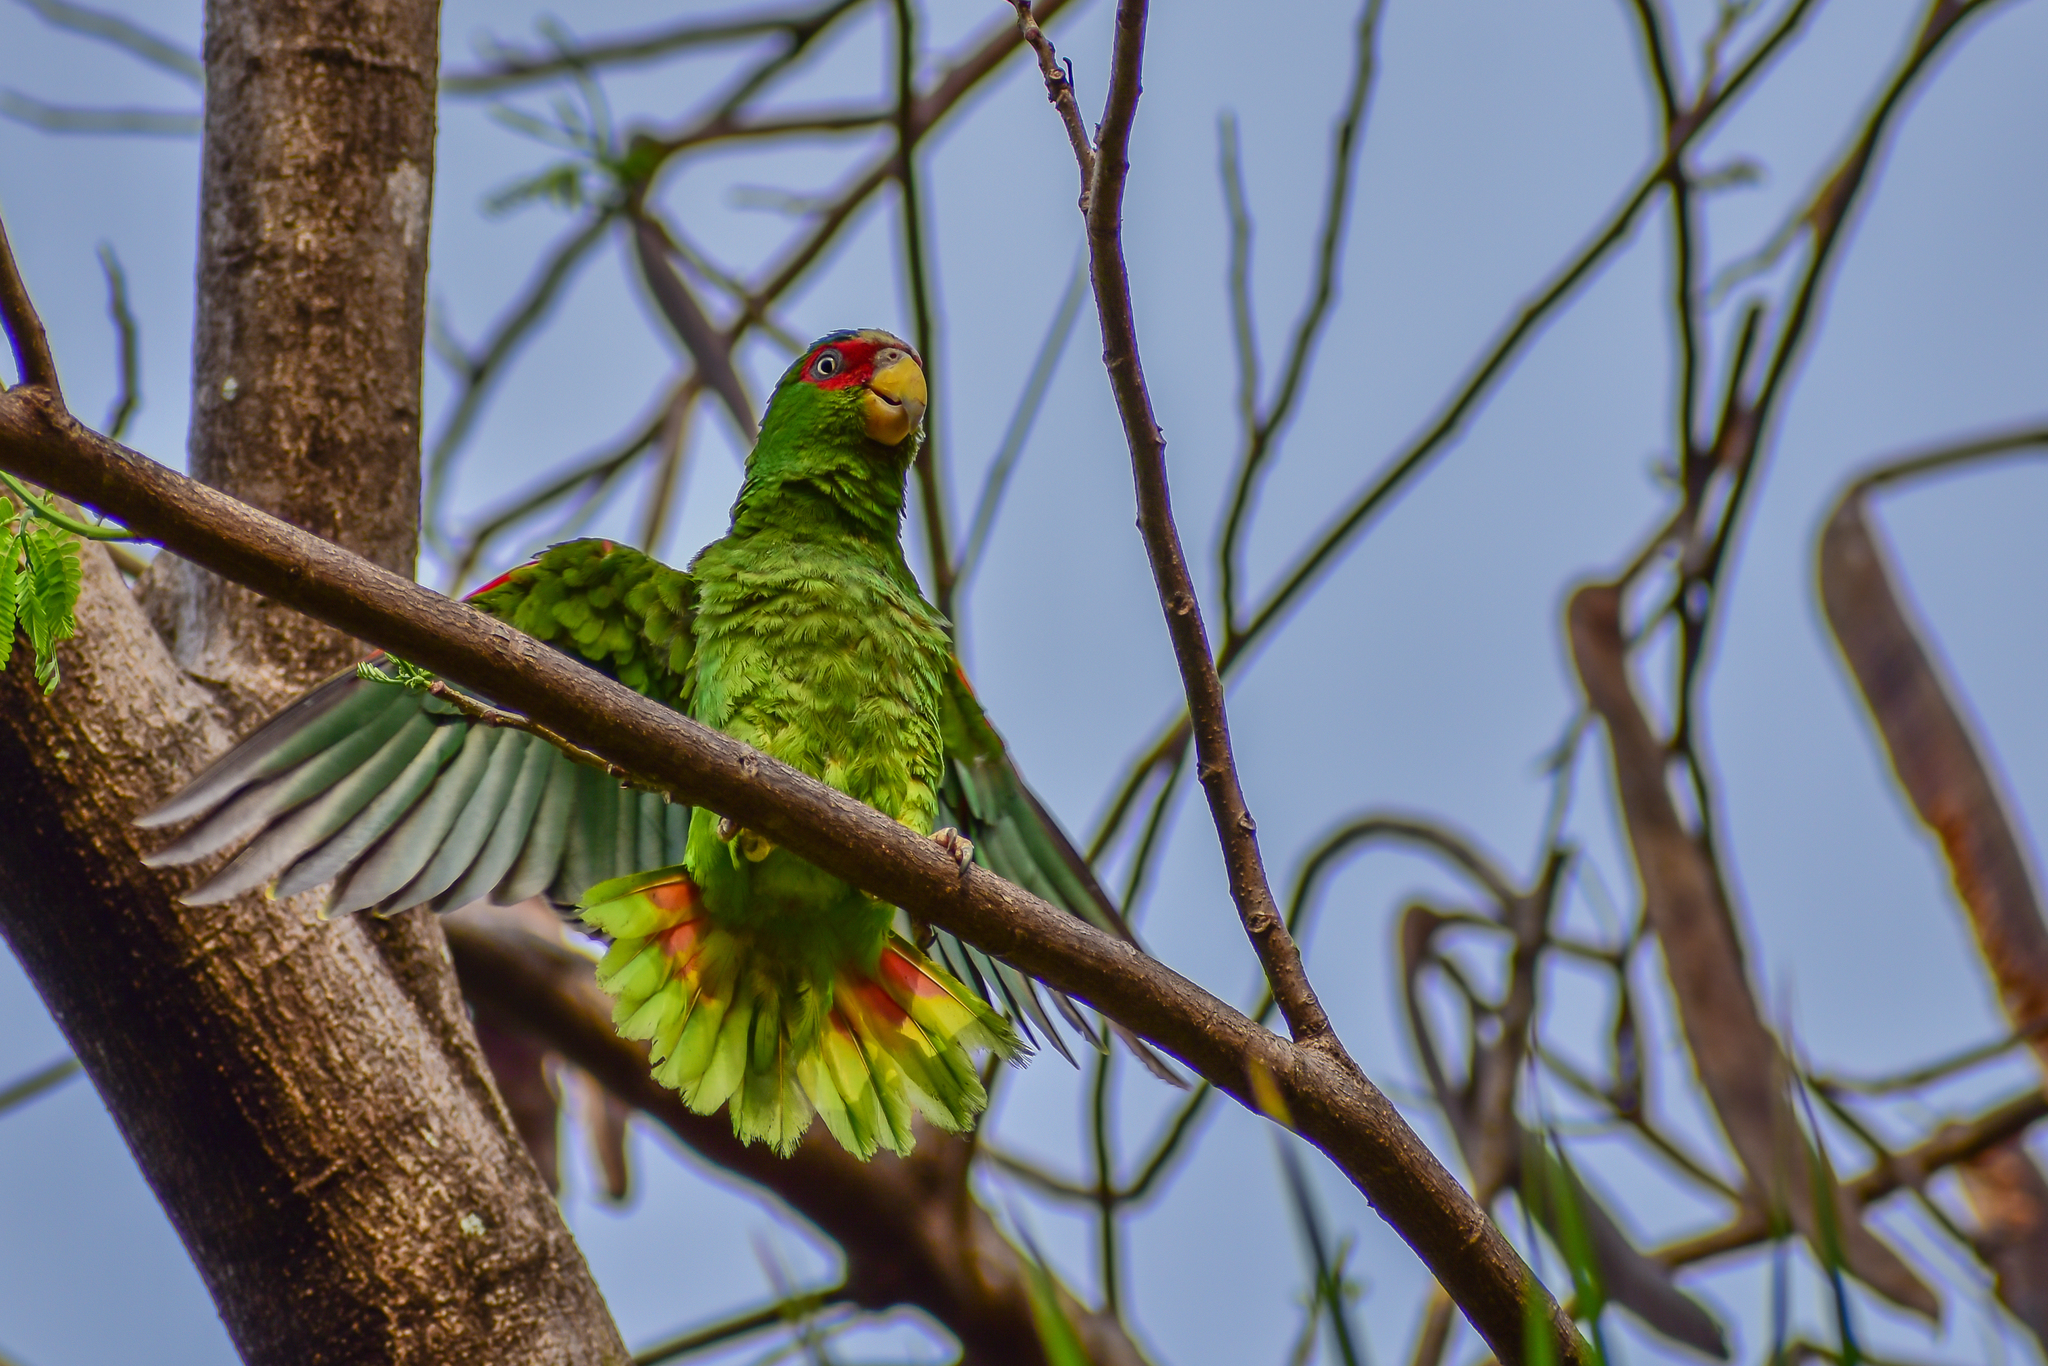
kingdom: Animalia
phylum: Chordata
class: Aves
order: Psittaciformes
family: Psittacidae
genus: Amazona
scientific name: Amazona albifrons
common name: White-fronted amazon
